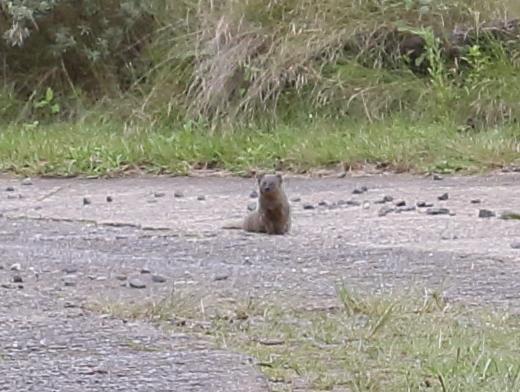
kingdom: Animalia
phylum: Chordata
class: Mammalia
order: Carnivora
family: Herpestidae
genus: Galerella
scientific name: Galerella pulverulenta
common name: Cape gray mongoose
